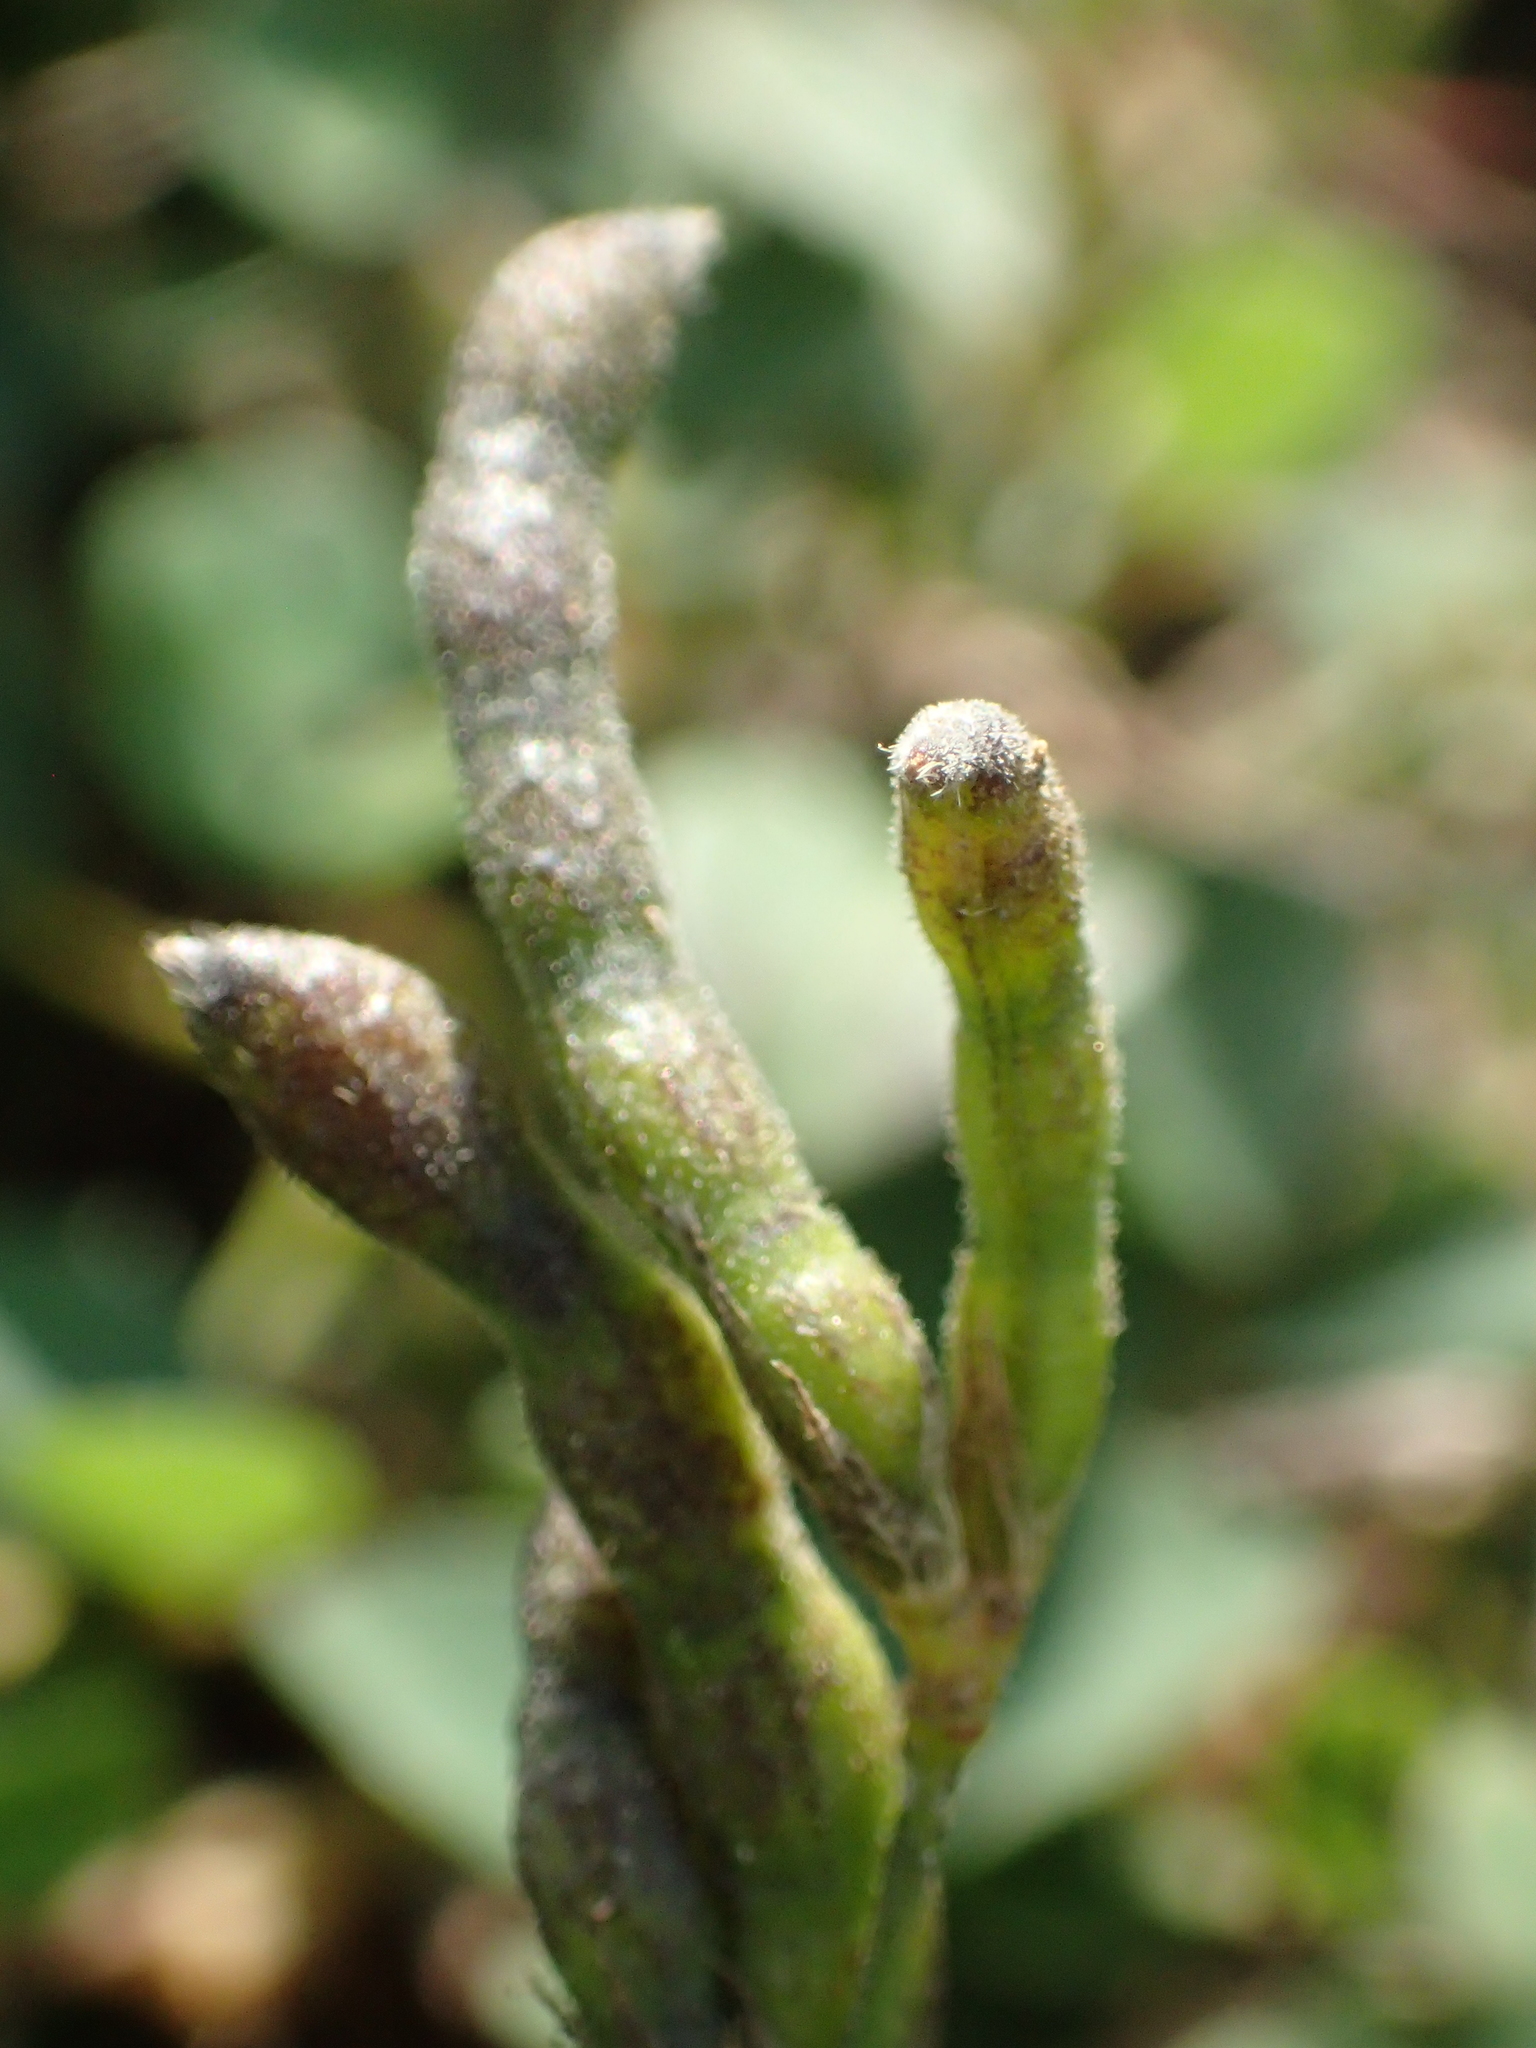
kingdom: Plantae
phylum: Tracheophyta
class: Magnoliopsida
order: Fabales
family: Fabaceae
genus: Alysicarpus
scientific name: Alysicarpus vaginalis
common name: White moneywort
